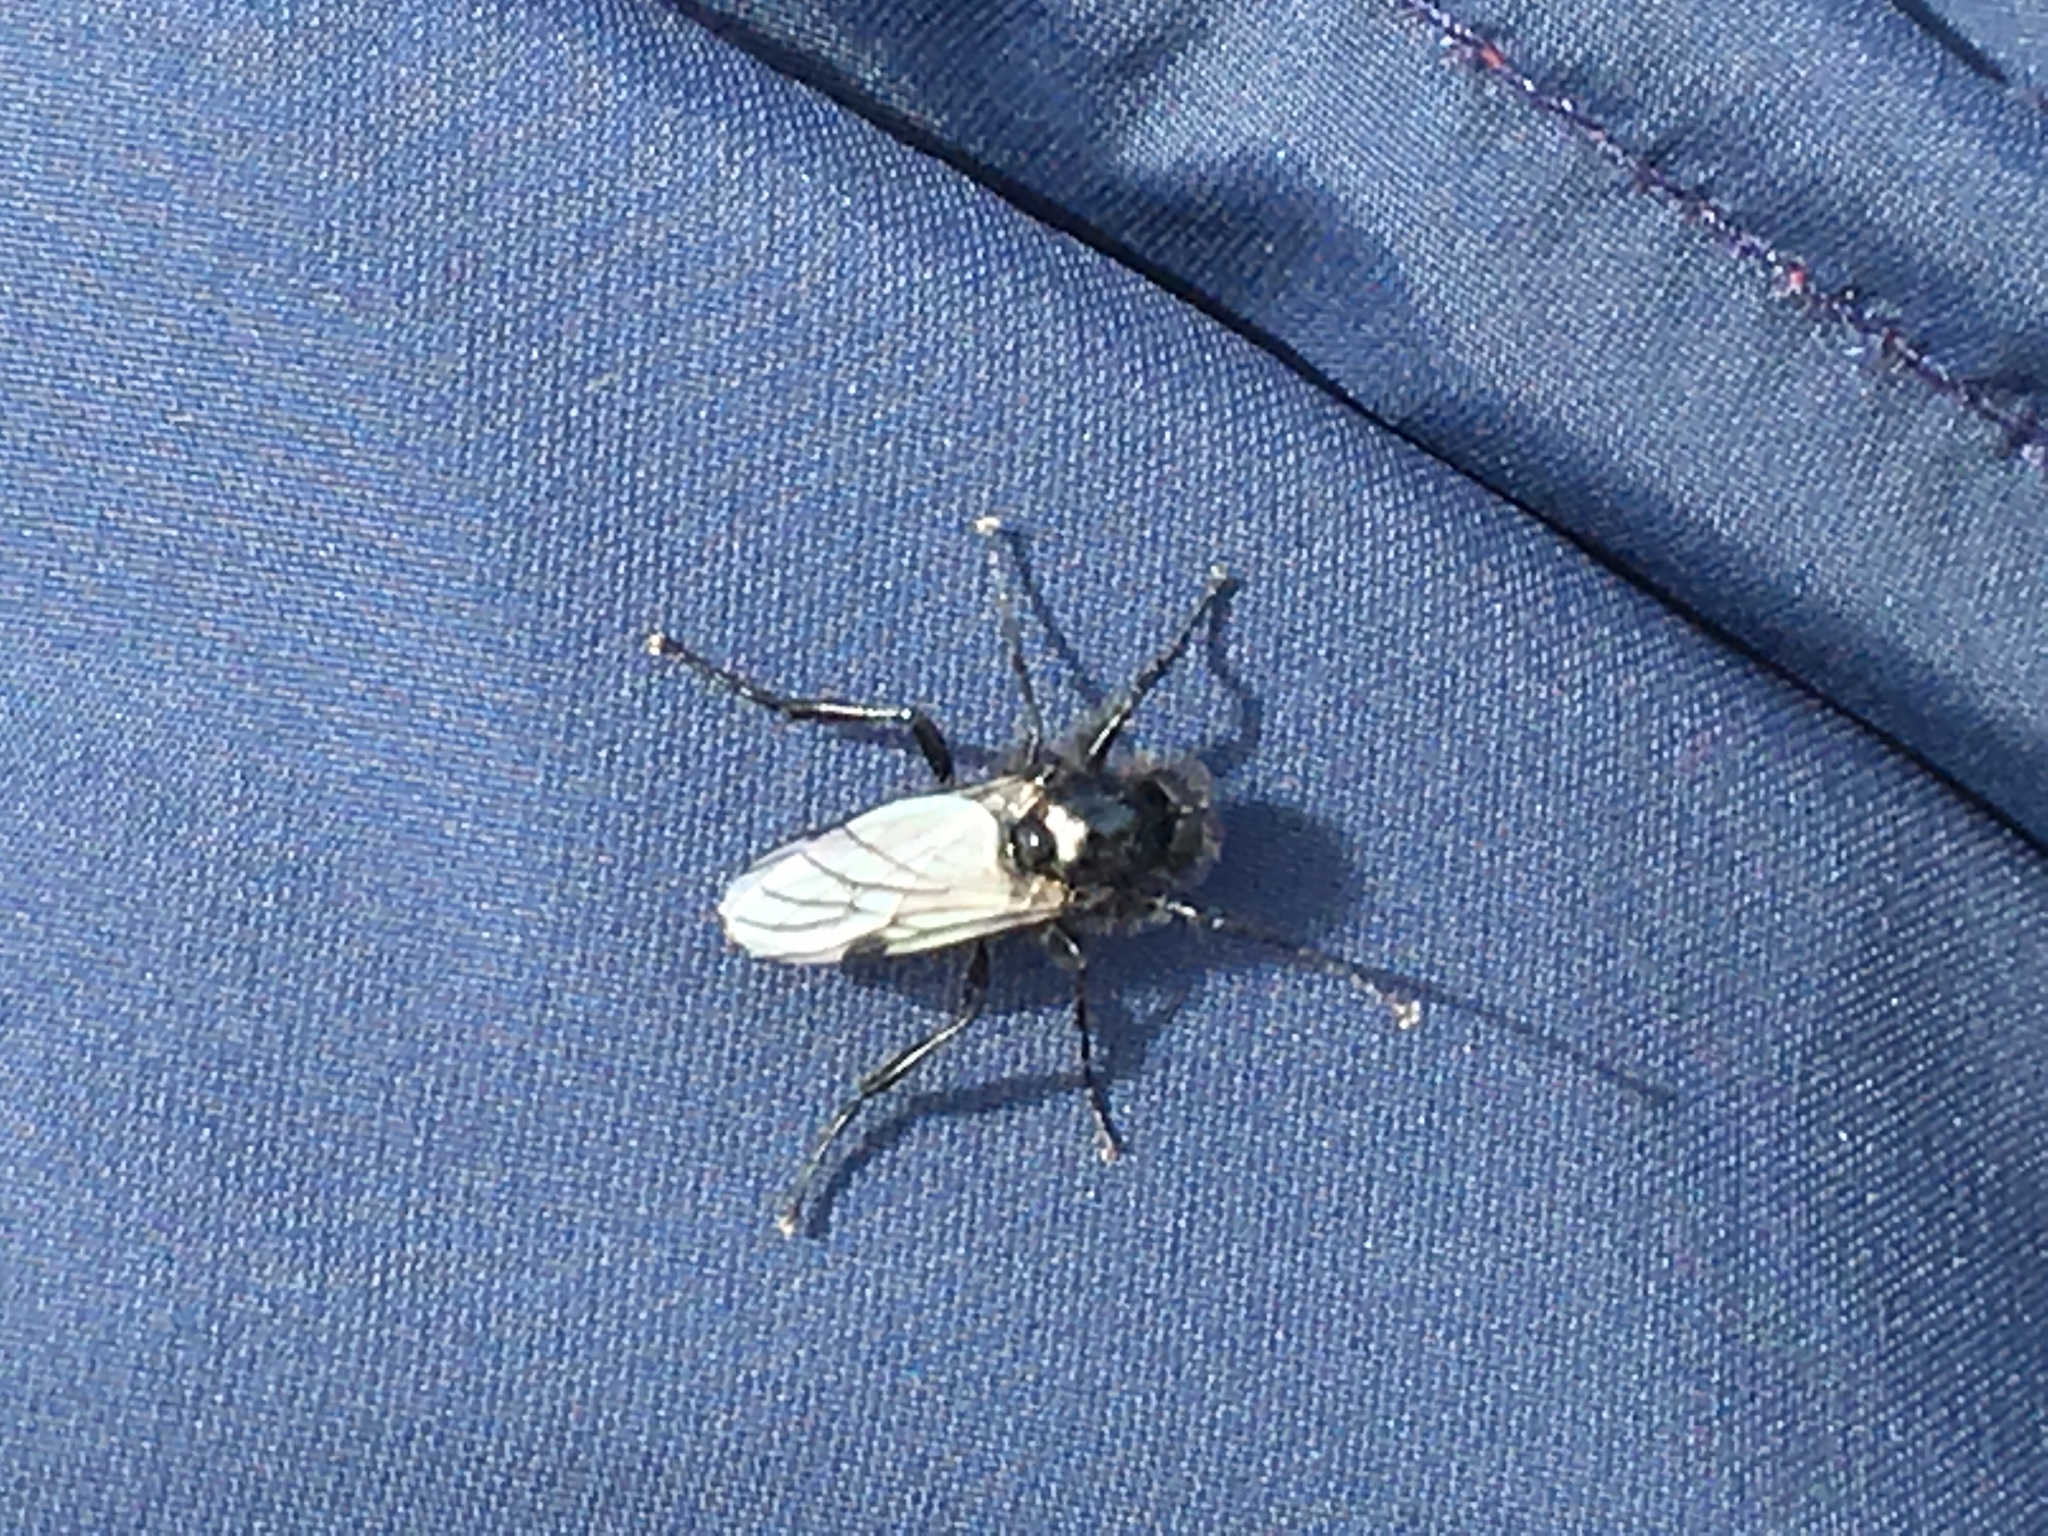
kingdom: Animalia
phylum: Arthropoda
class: Insecta
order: Diptera
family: Bibionidae
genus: Bibio
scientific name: Bibio necotus
